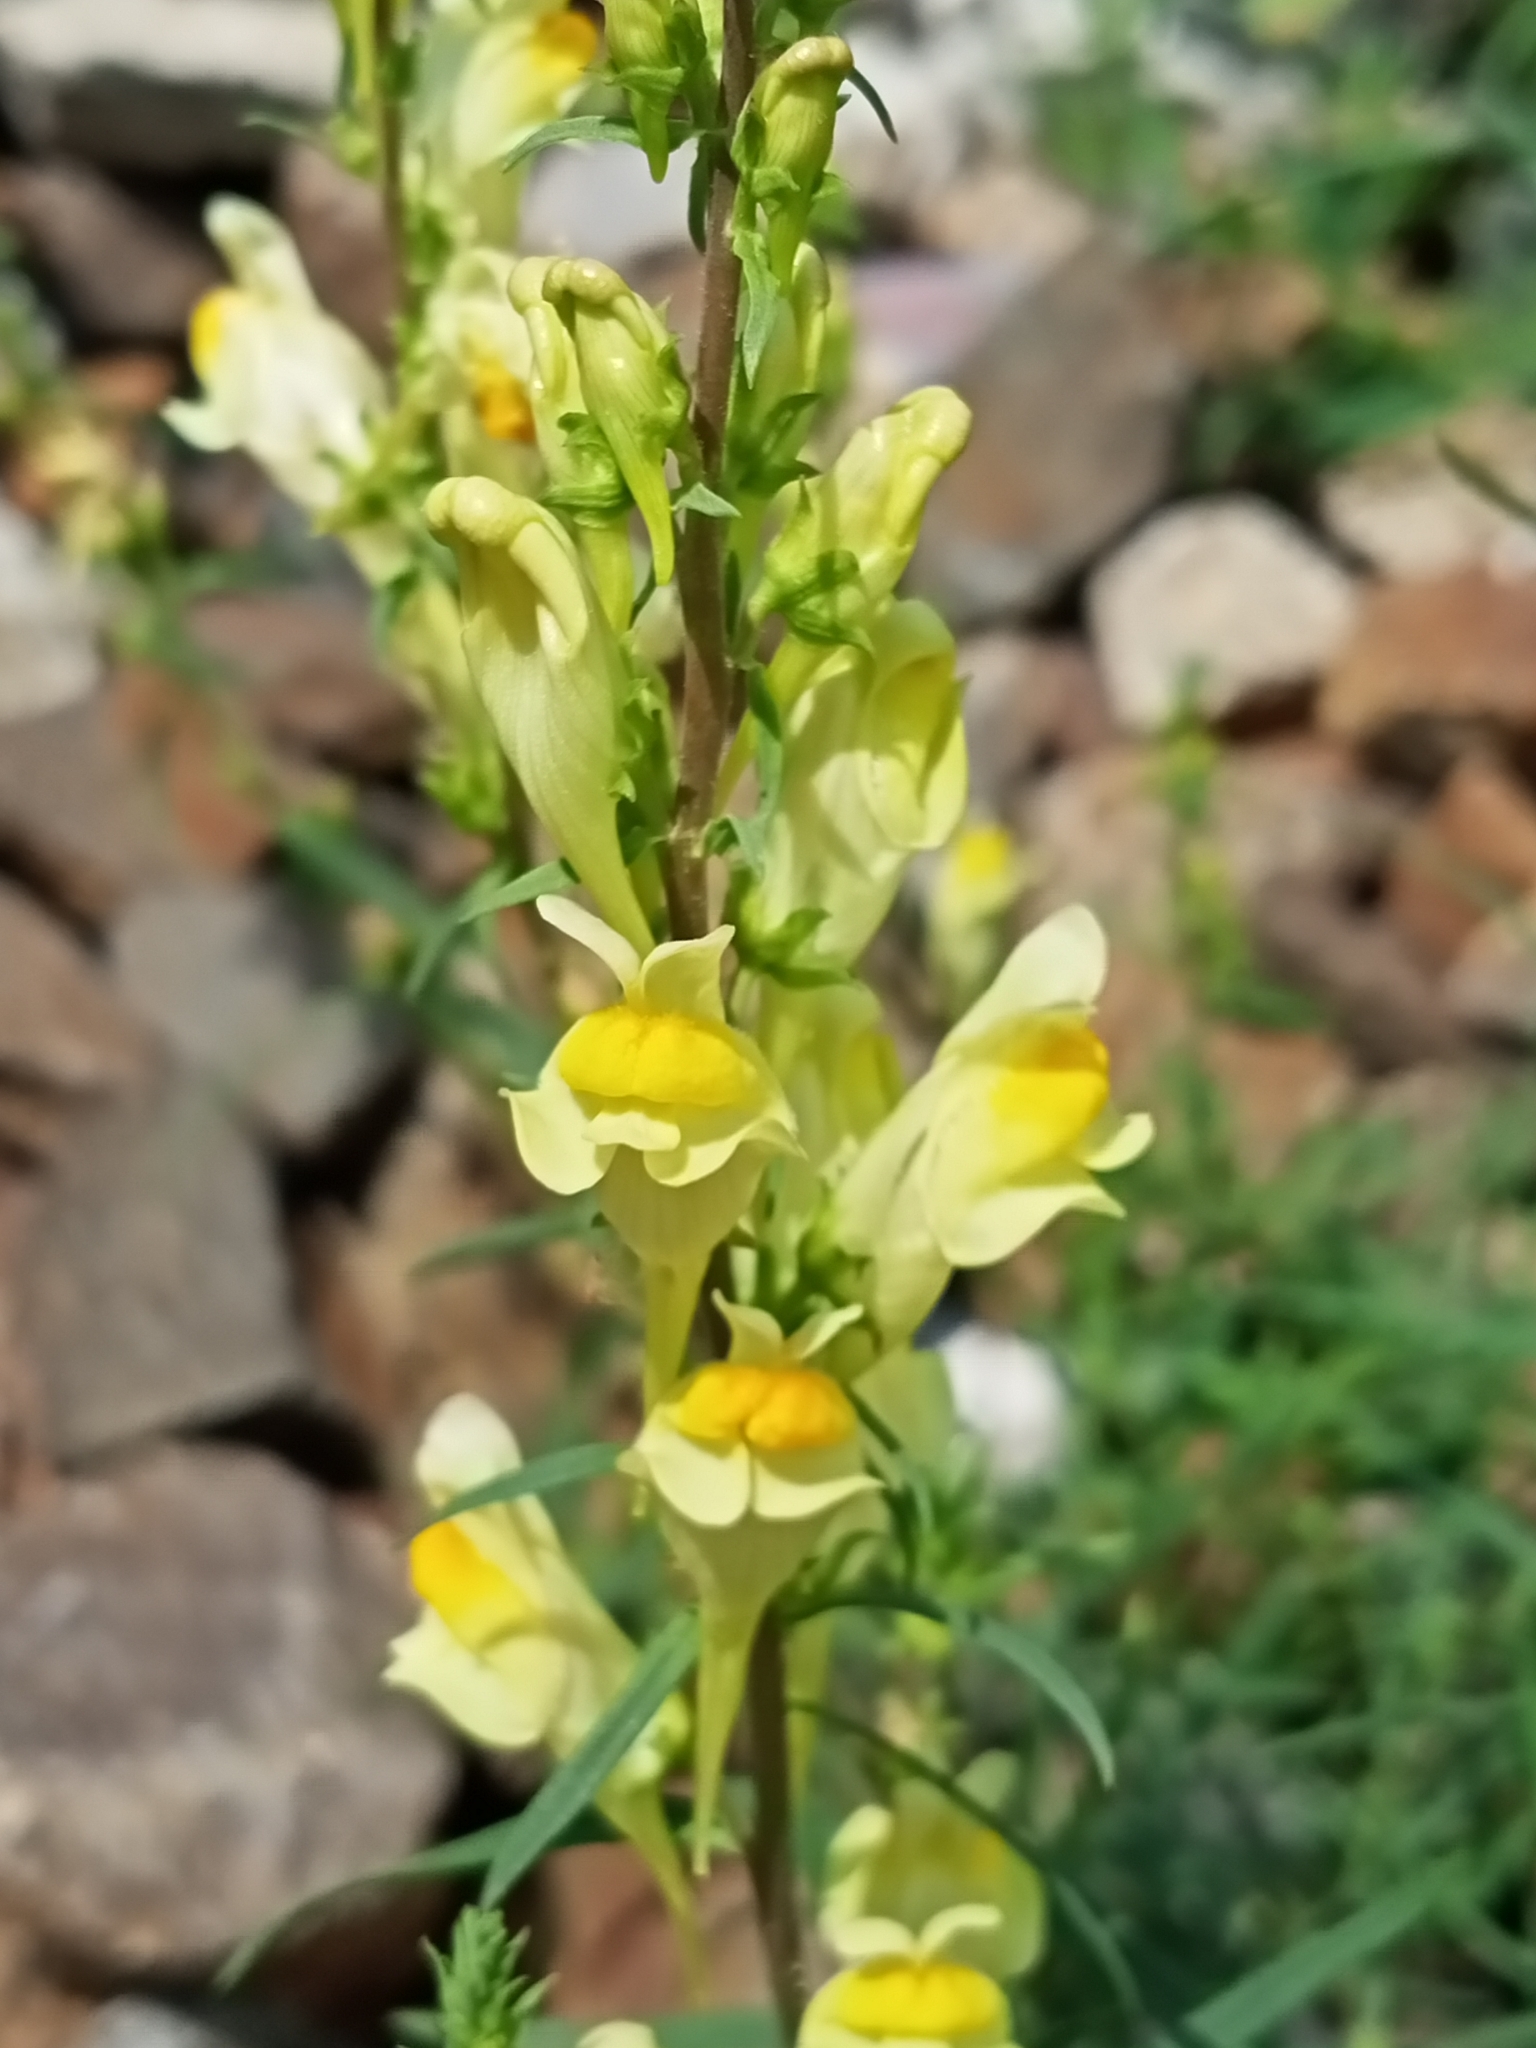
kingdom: Plantae
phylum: Tracheophyta
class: Magnoliopsida
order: Lamiales
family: Plantaginaceae
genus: Linaria
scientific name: Linaria vulgaris
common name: Butter and eggs
